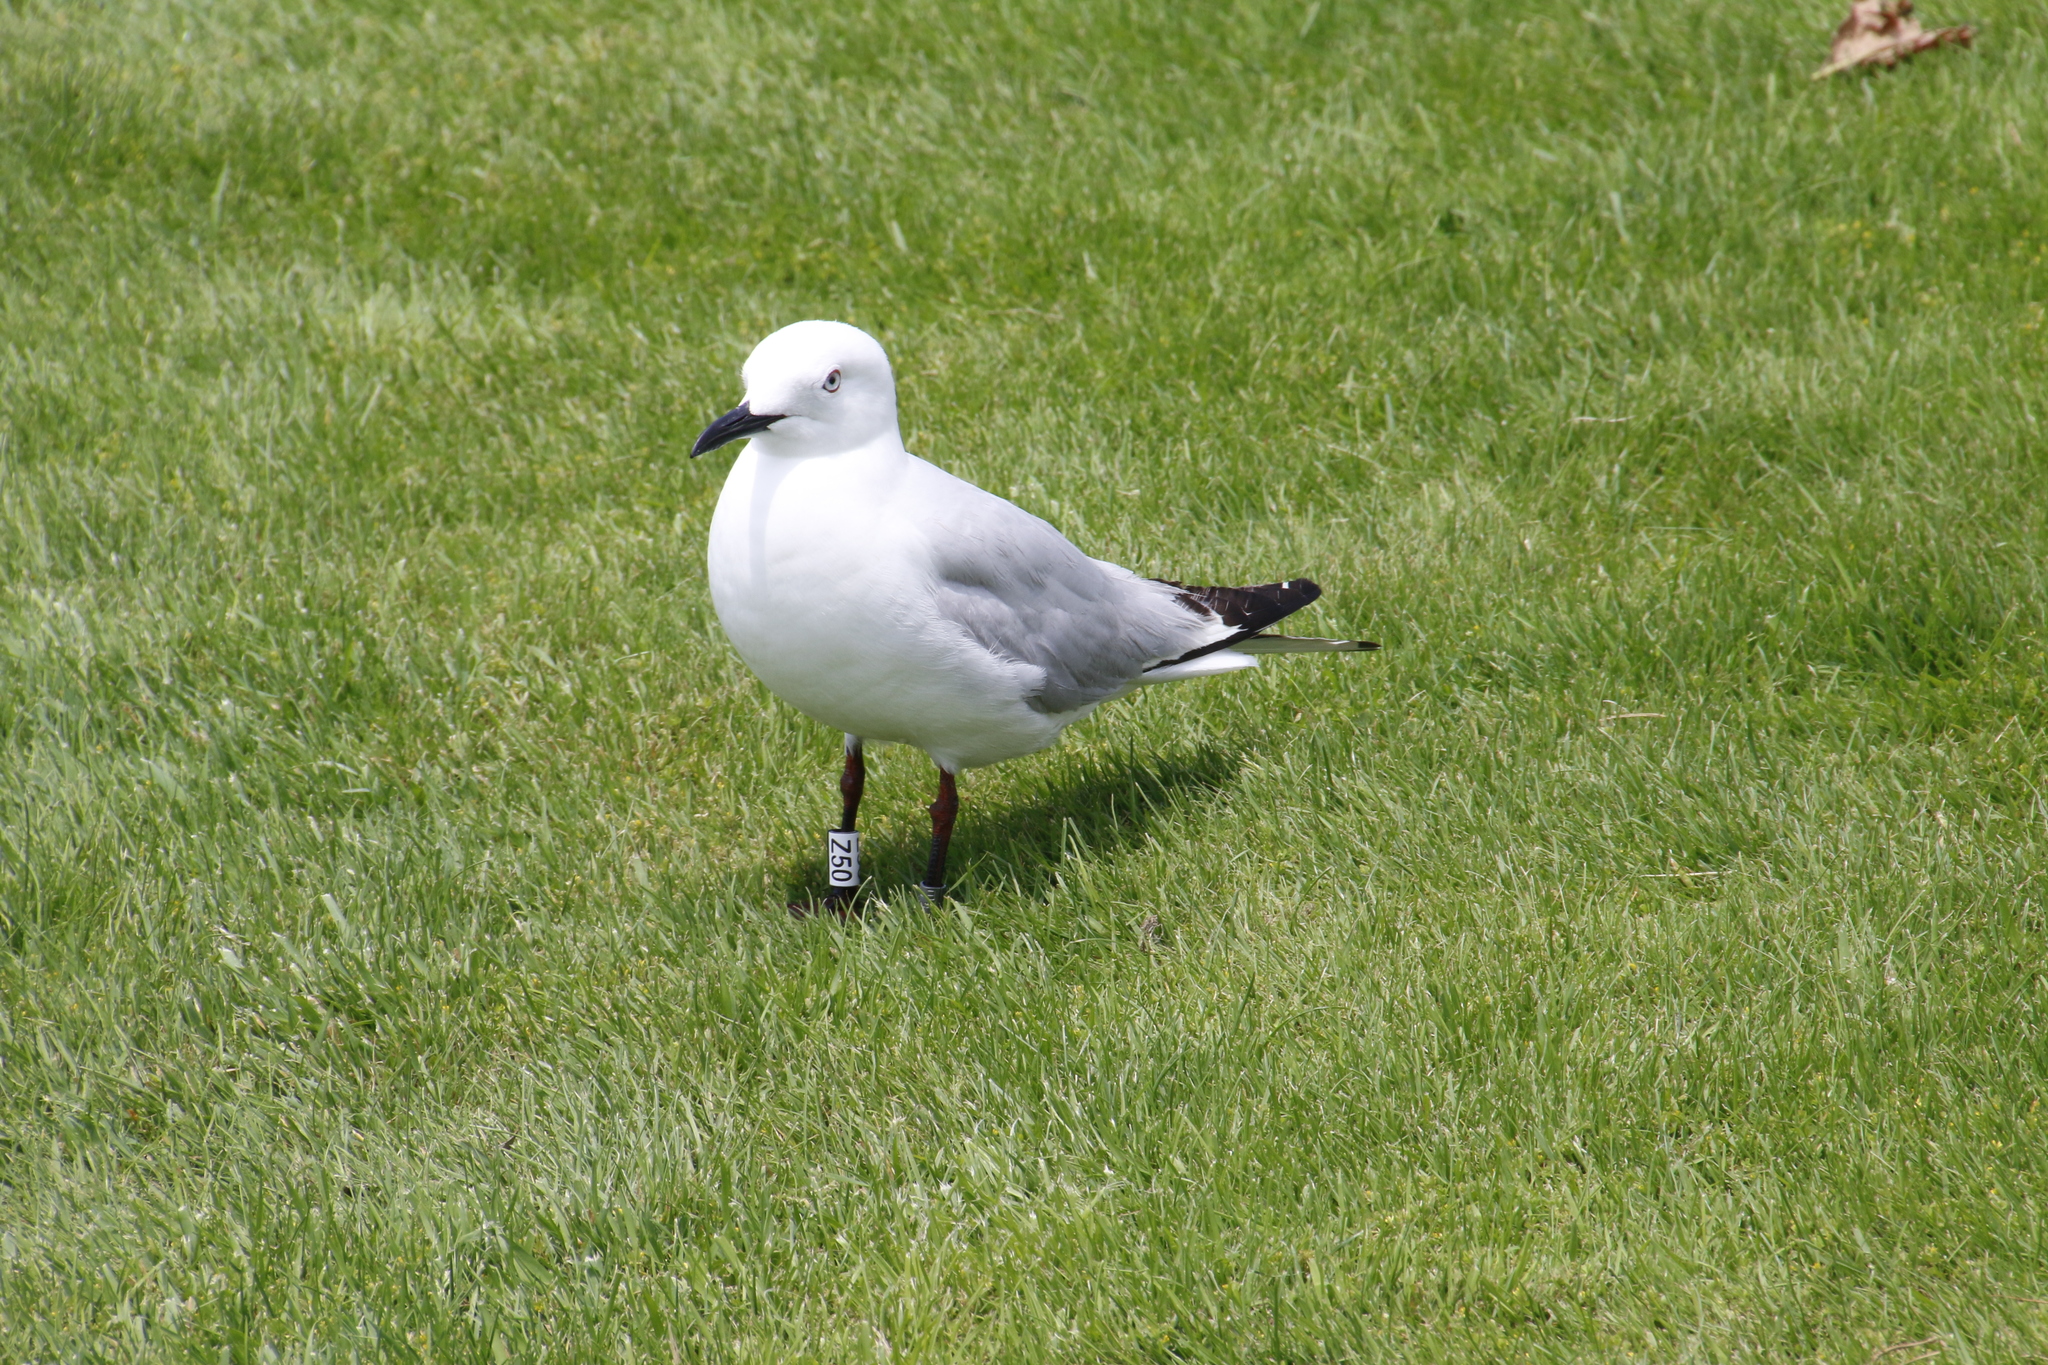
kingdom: Animalia
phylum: Chordata
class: Aves
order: Charadriiformes
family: Laridae
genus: Chroicocephalus
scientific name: Chroicocephalus bulleri
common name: Black-billed gull
